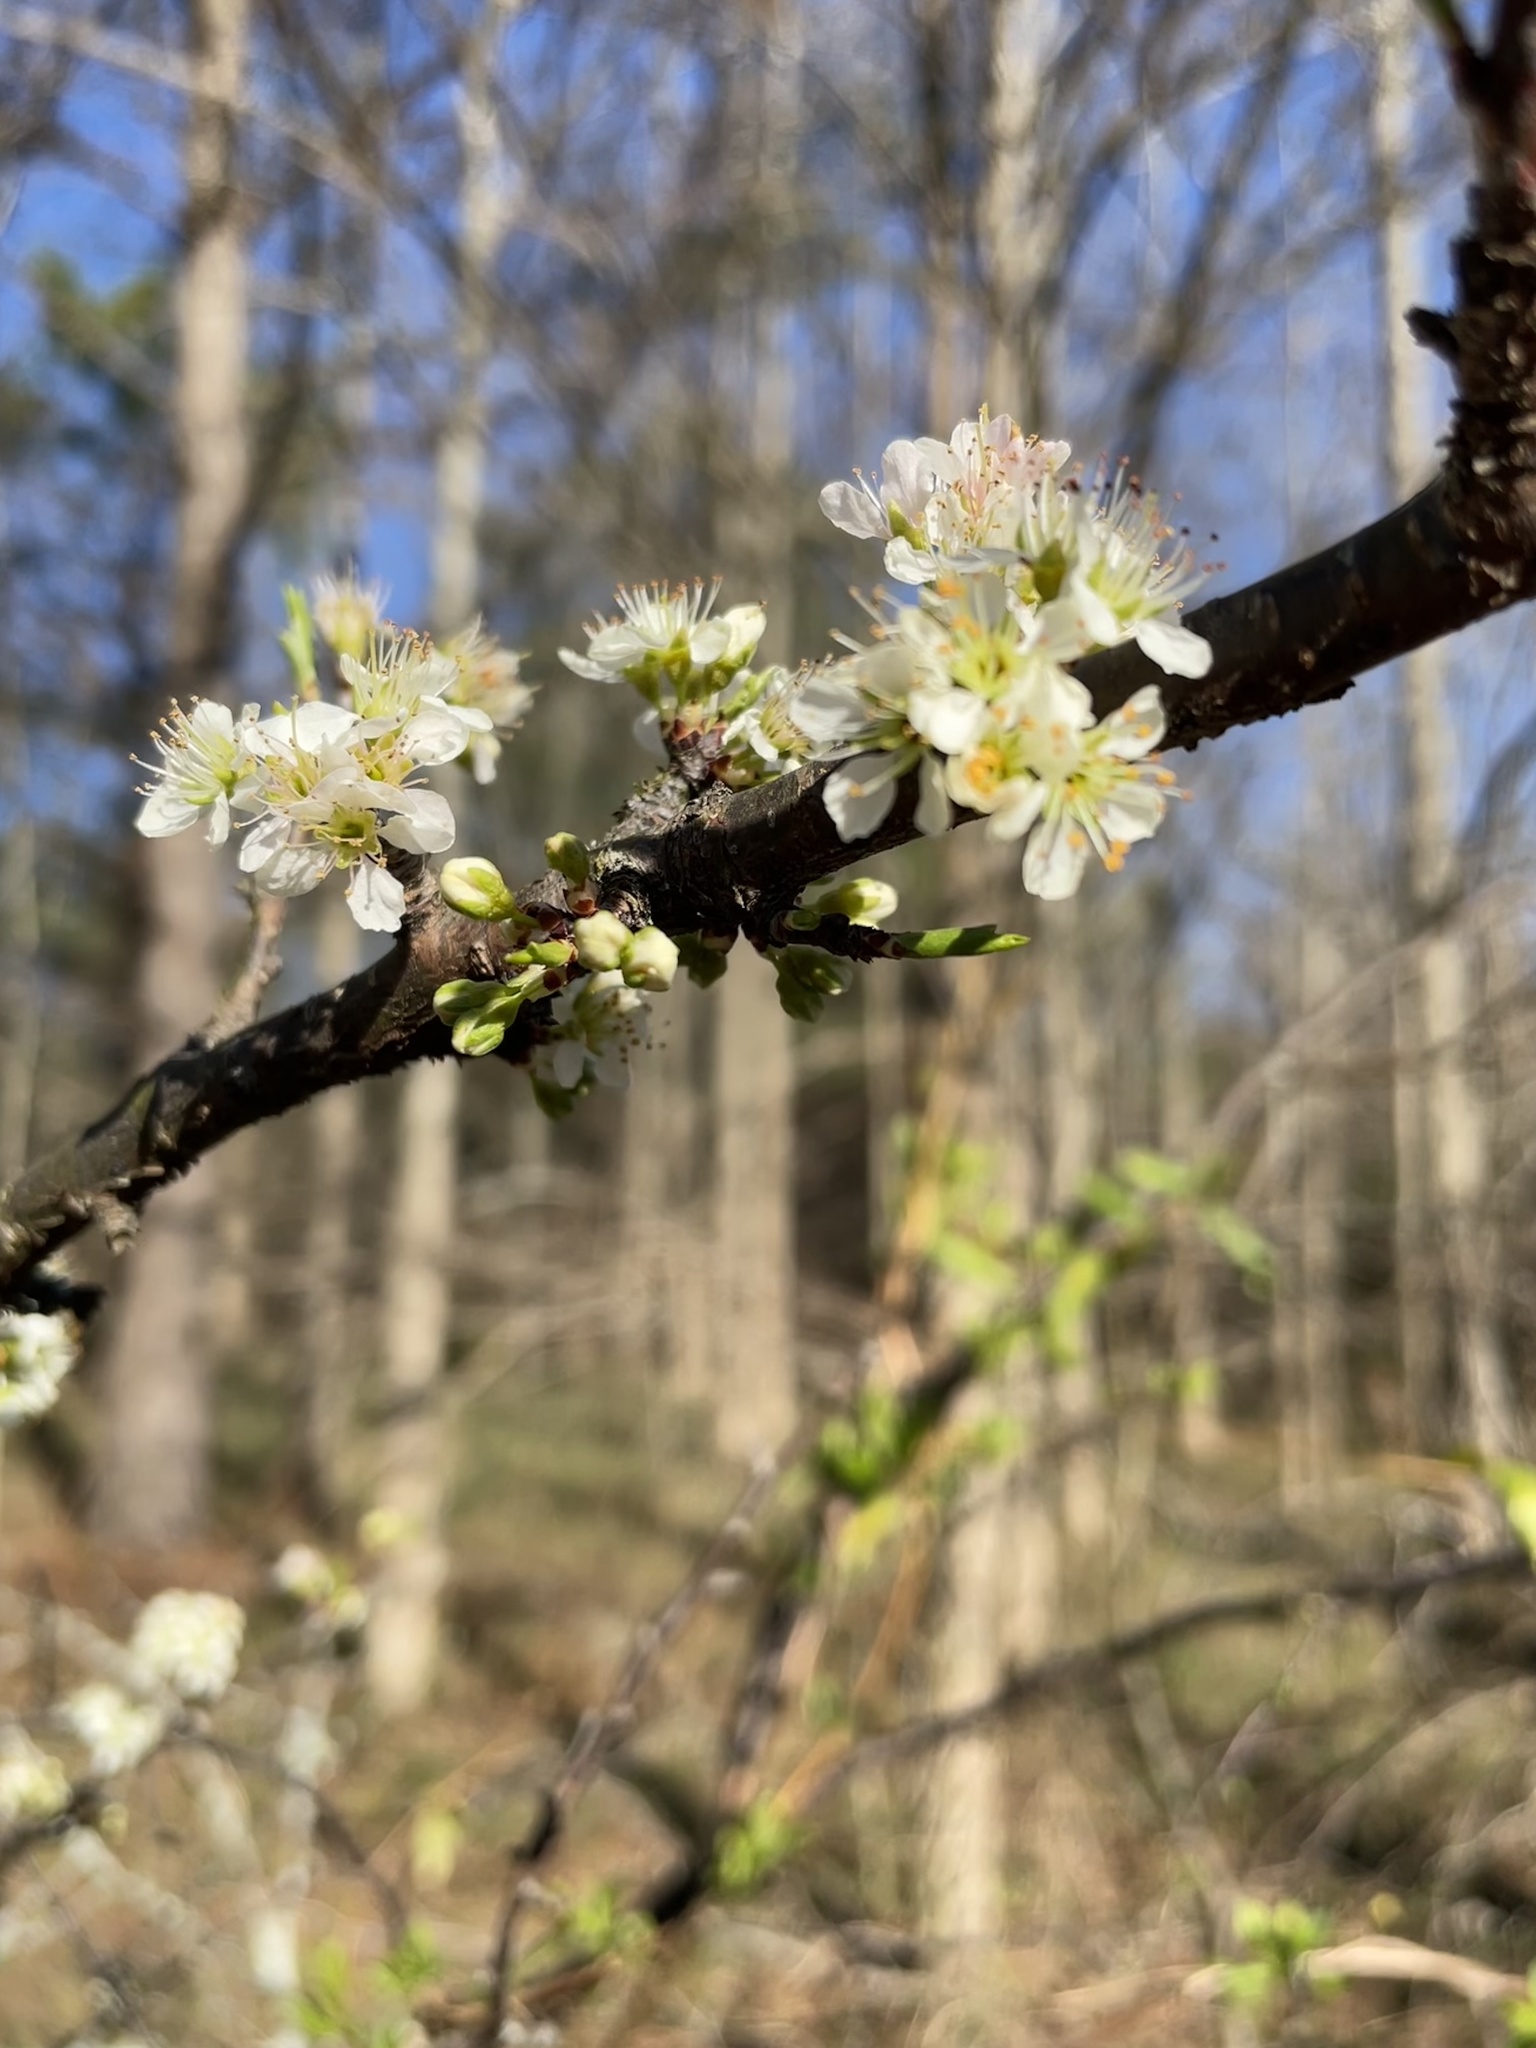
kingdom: Plantae
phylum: Tracheophyta
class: Magnoliopsida
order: Rosales
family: Rosaceae
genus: Prunus
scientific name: Prunus angustifolia
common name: Cherokee plum
